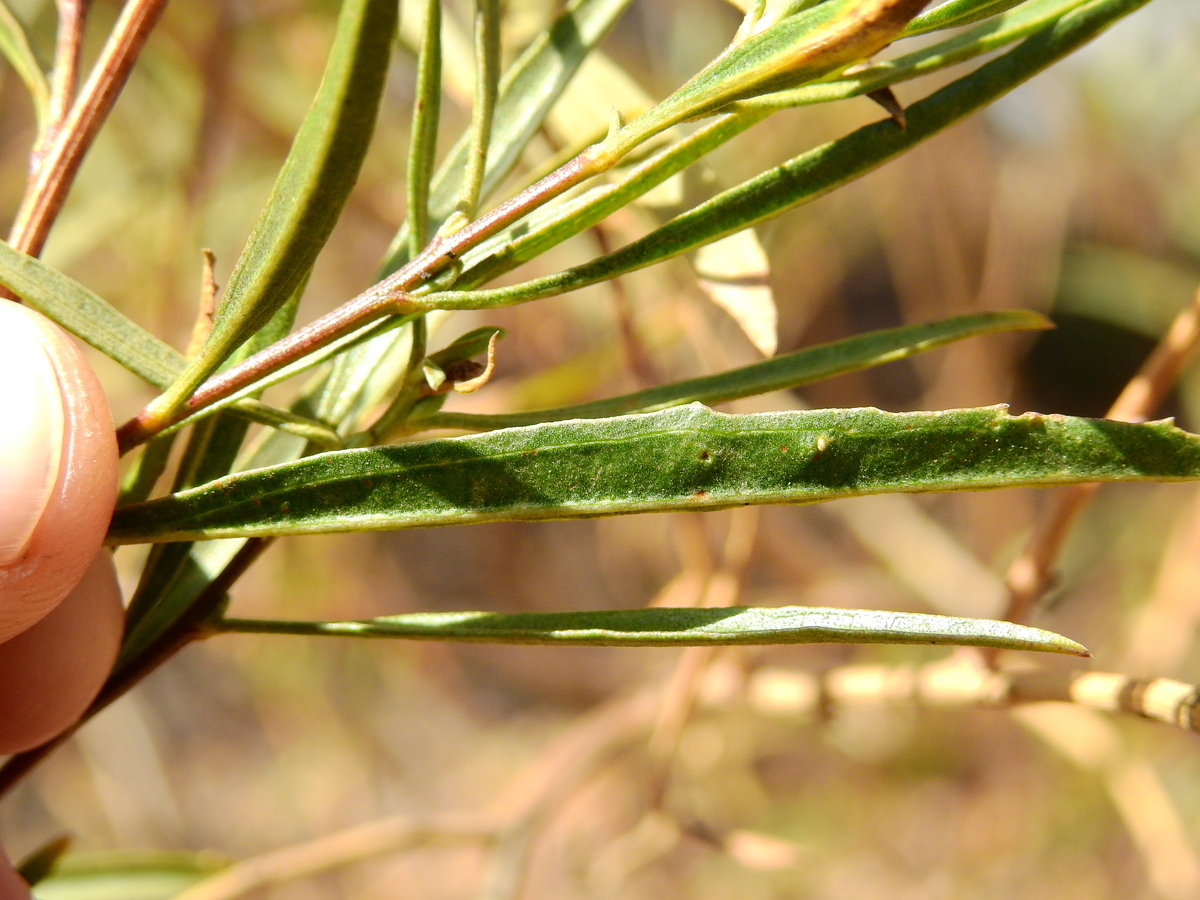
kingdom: Plantae
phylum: Tracheophyta
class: Magnoliopsida
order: Asterales
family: Asteraceae
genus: Baccharis
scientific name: Baccharis salicifolia
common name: Sticky baccharis
